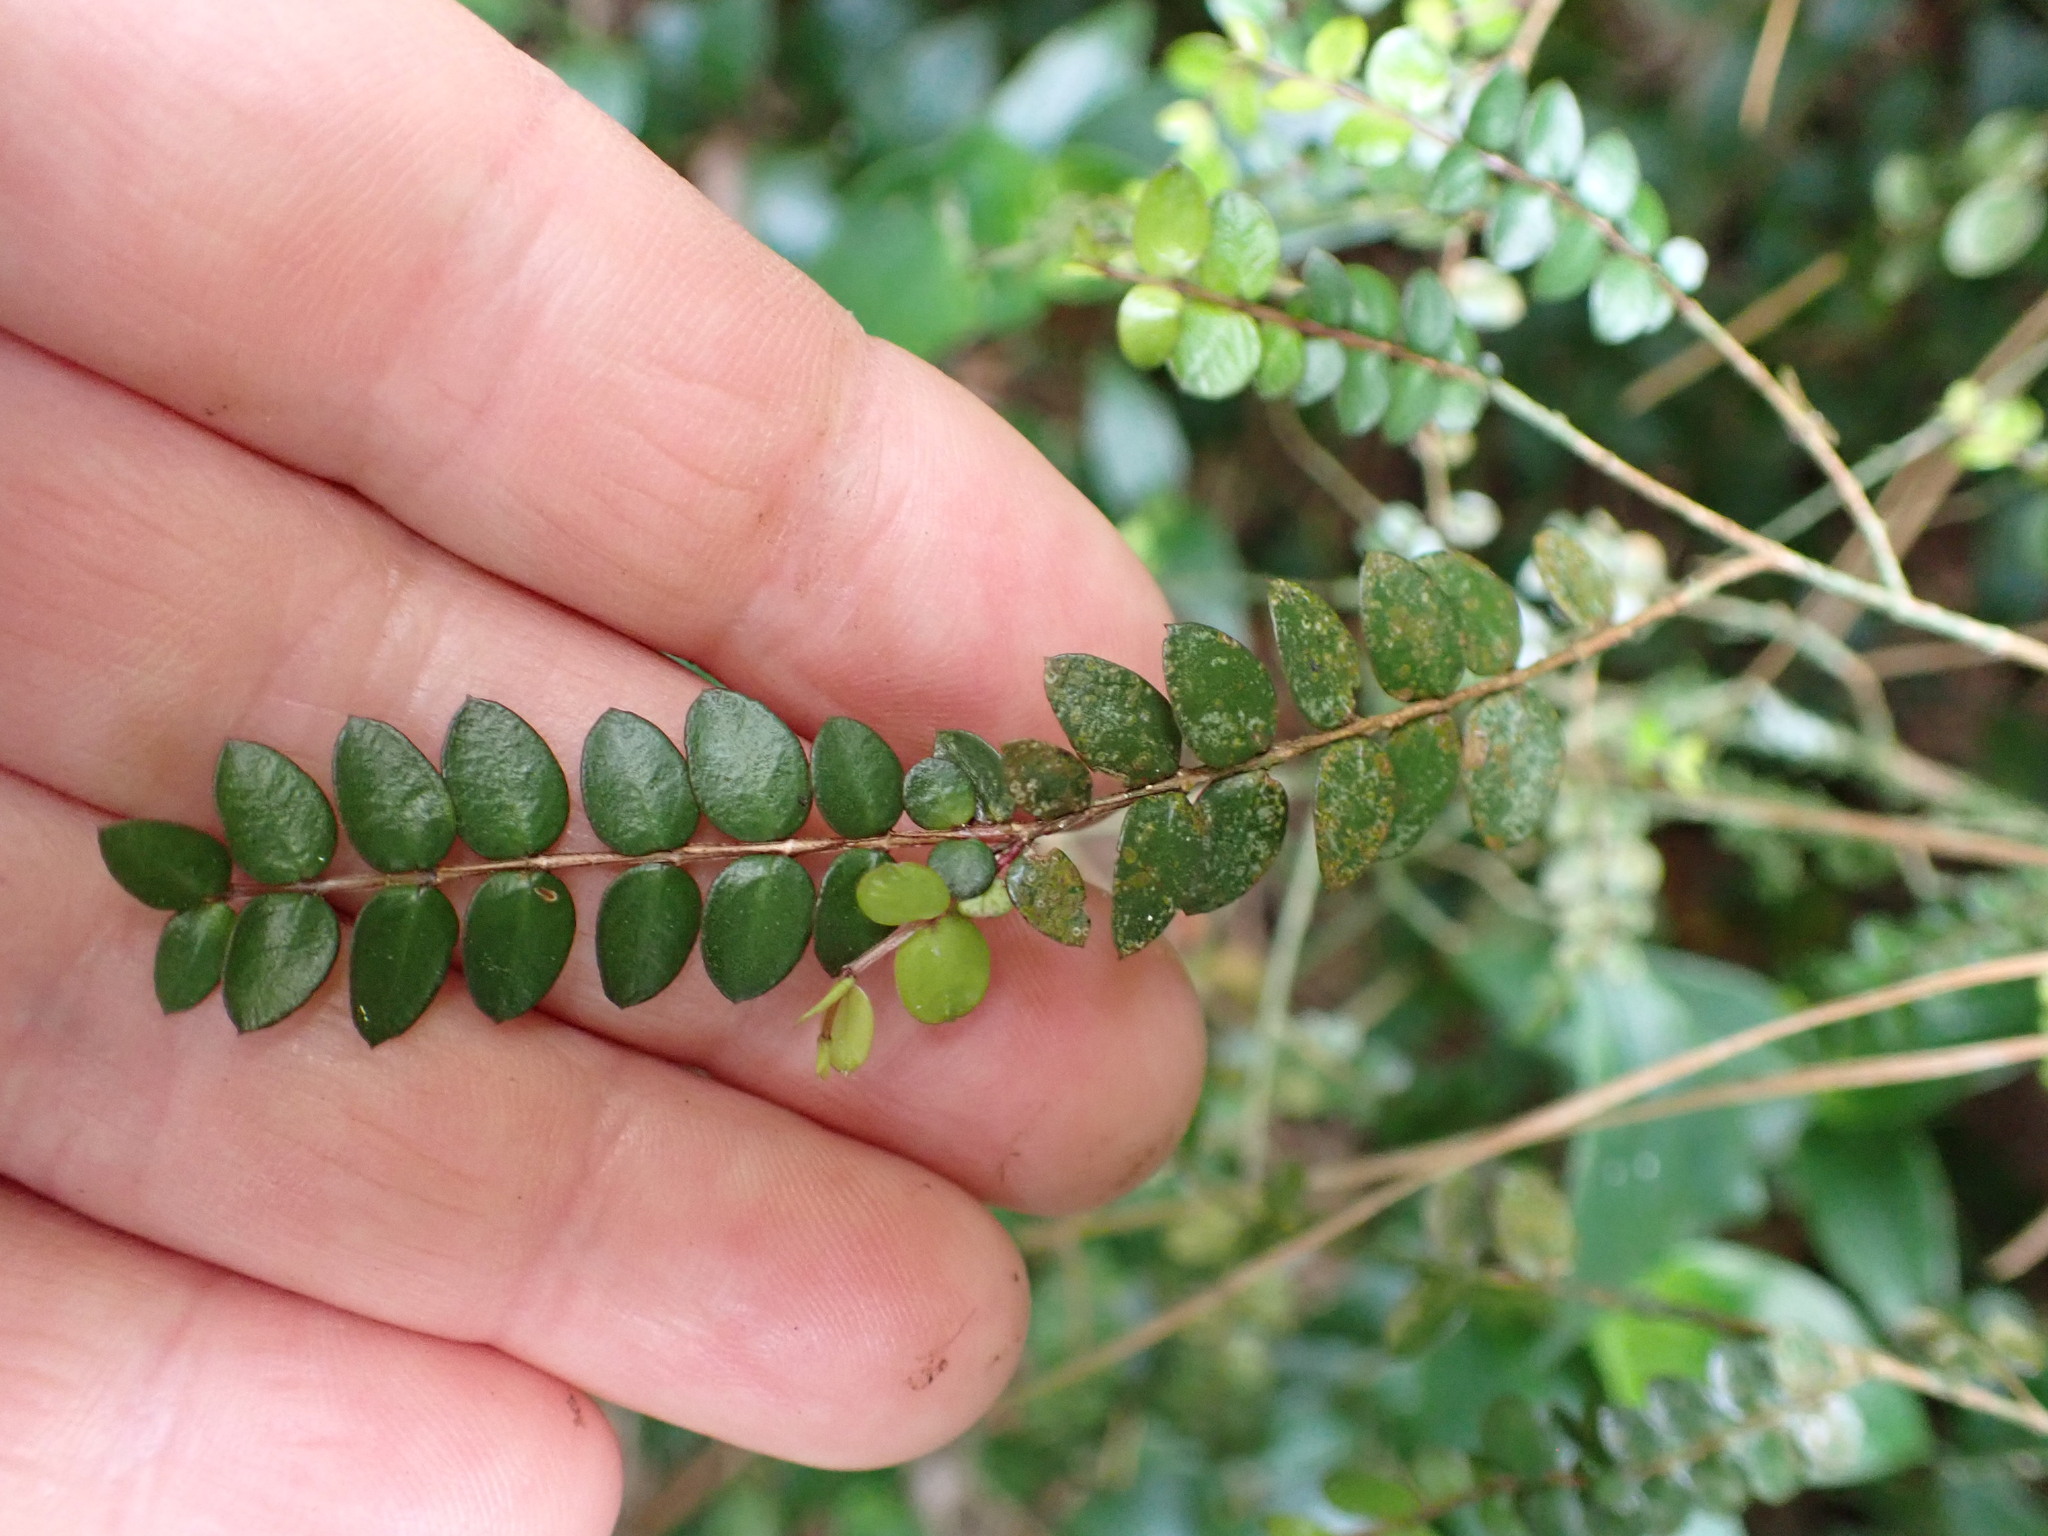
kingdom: Plantae
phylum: Tracheophyta
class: Magnoliopsida
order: Myrtales
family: Myrtaceae
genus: Metrosideros
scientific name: Metrosideros diffusa
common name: Small ratavine
